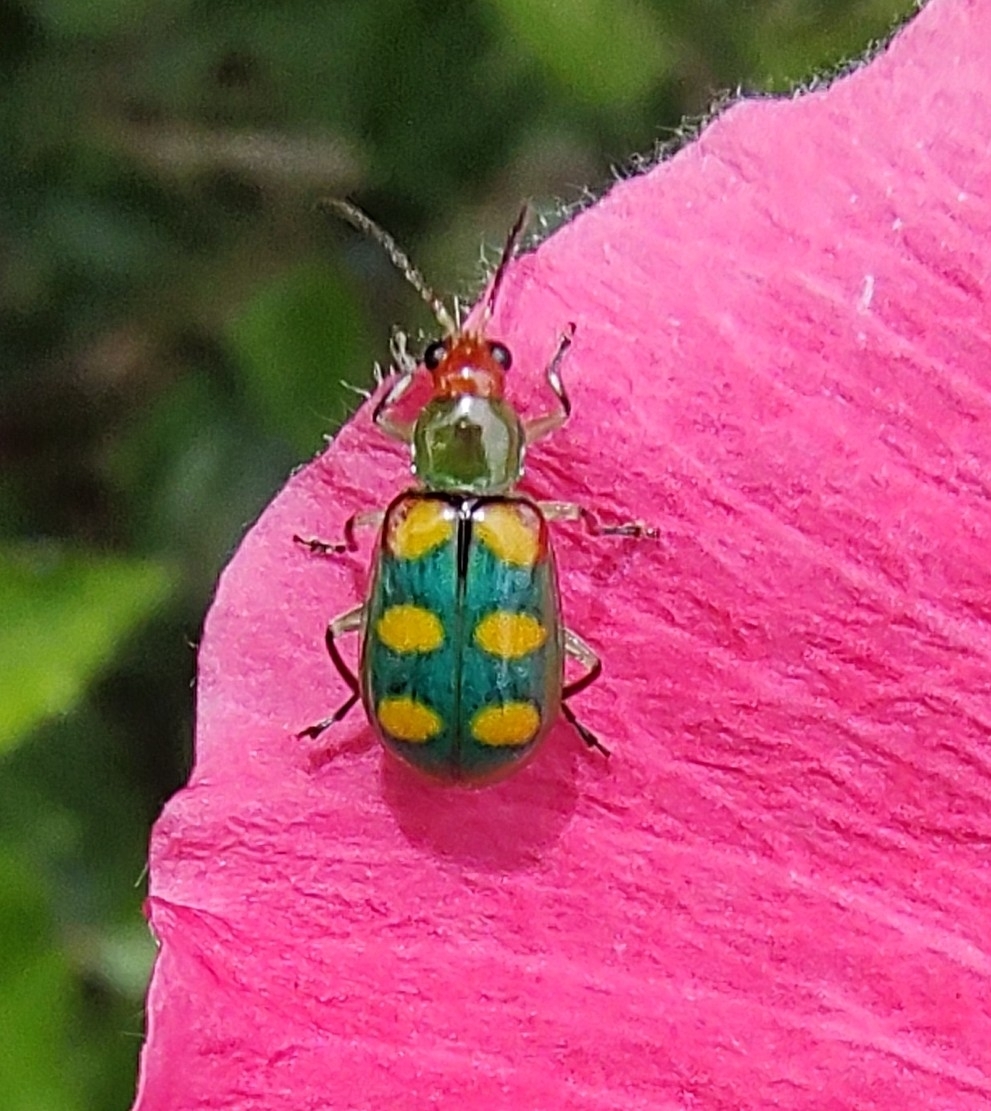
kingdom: Animalia
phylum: Arthropoda
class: Insecta
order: Coleoptera
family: Chrysomelidae
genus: Diabrotica
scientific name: Diabrotica speciosa
